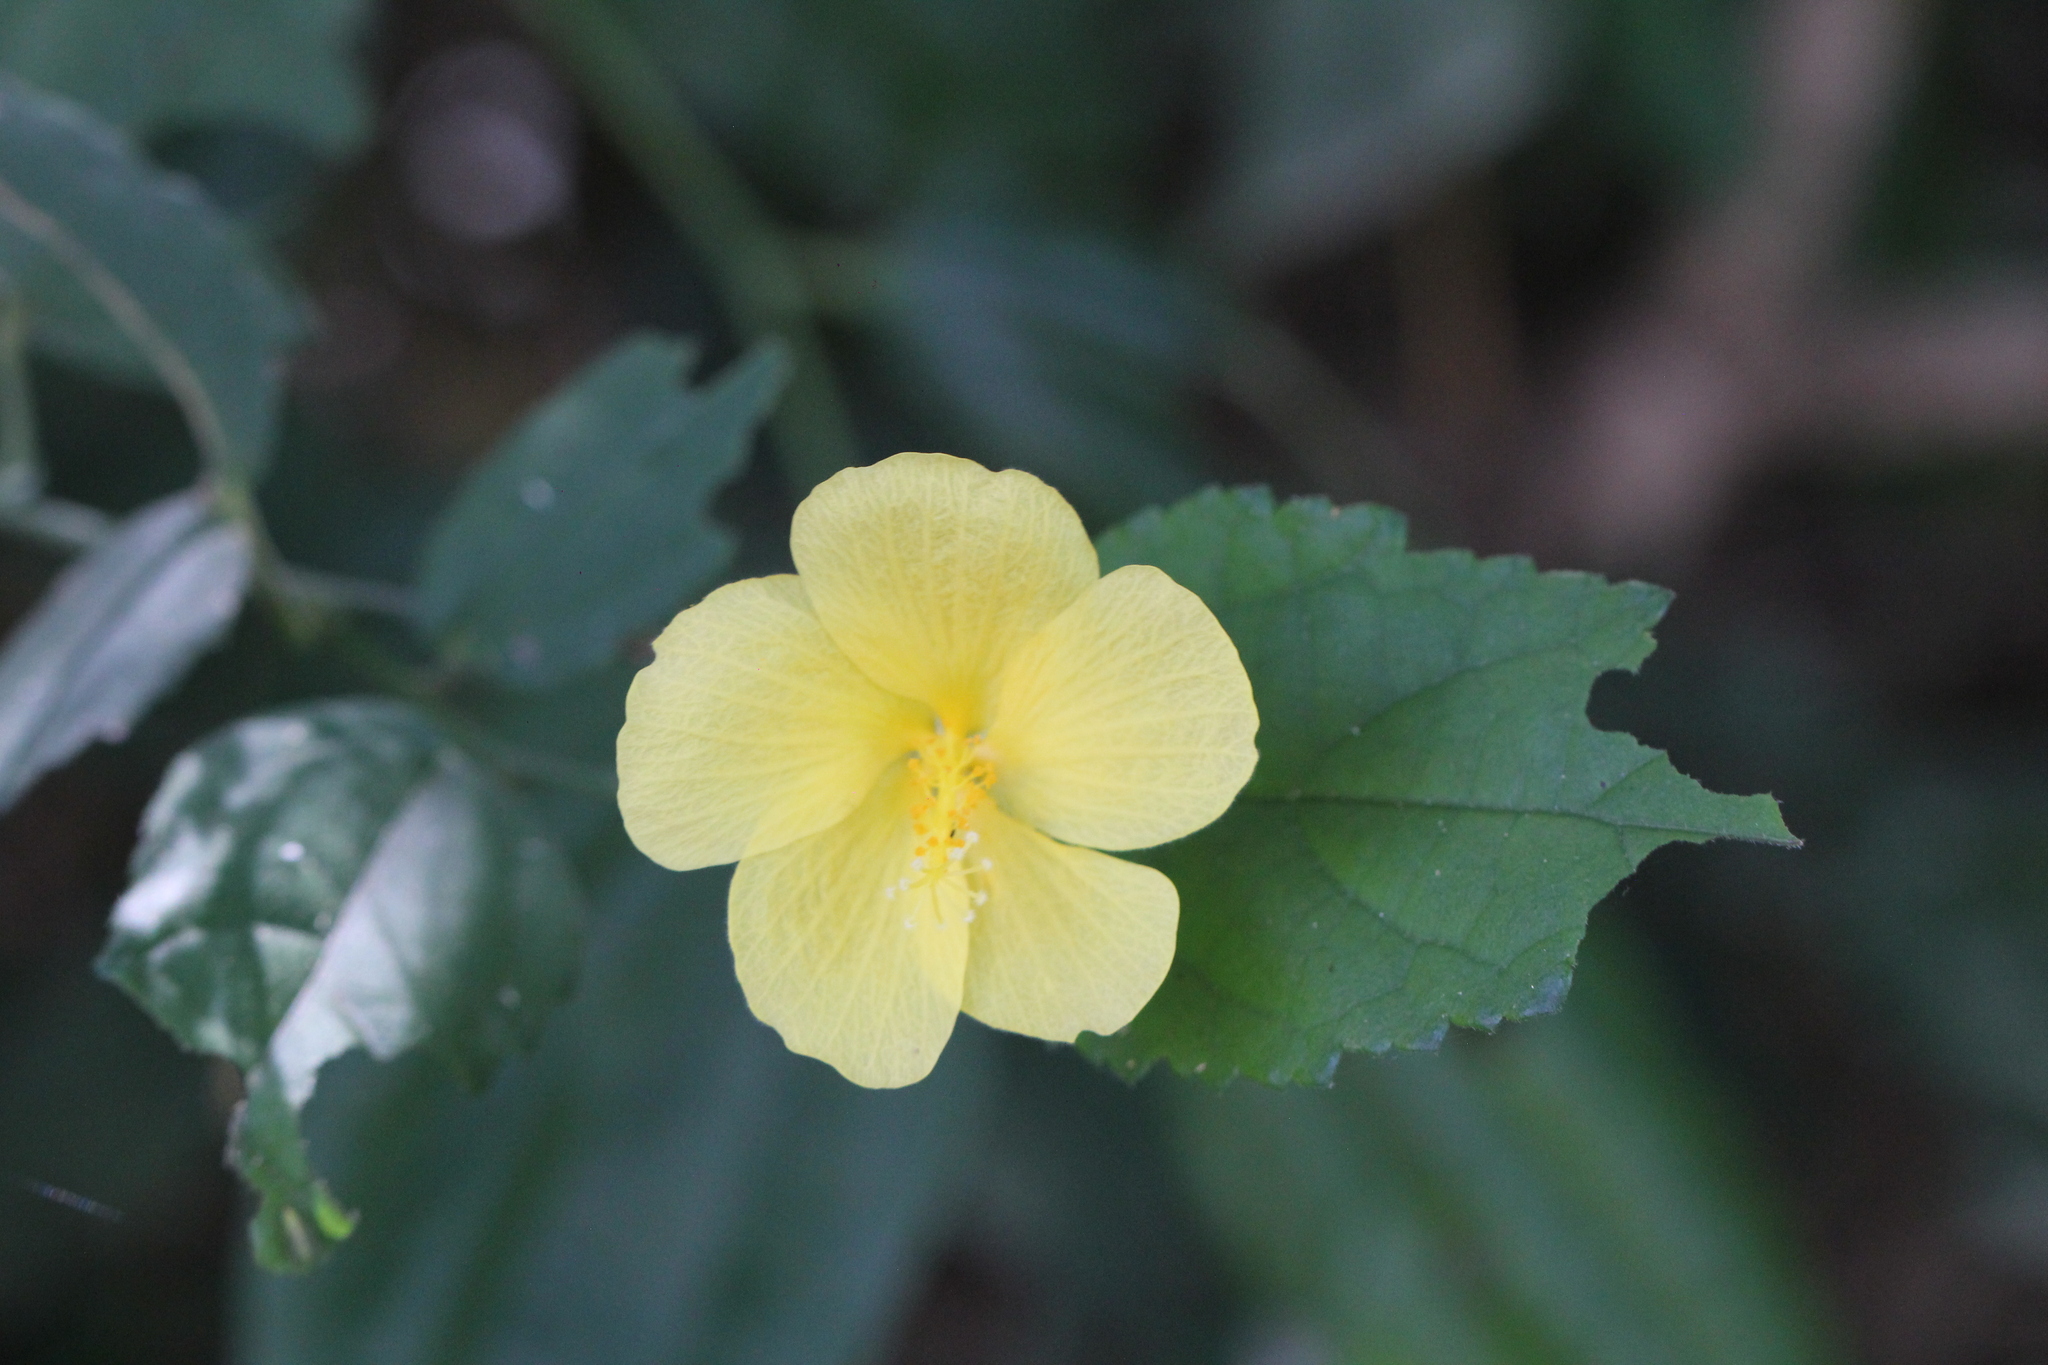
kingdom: Plantae
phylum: Tracheophyta
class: Magnoliopsida
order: Malvales
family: Malvaceae
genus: Pavonia
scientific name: Pavonia sepium
